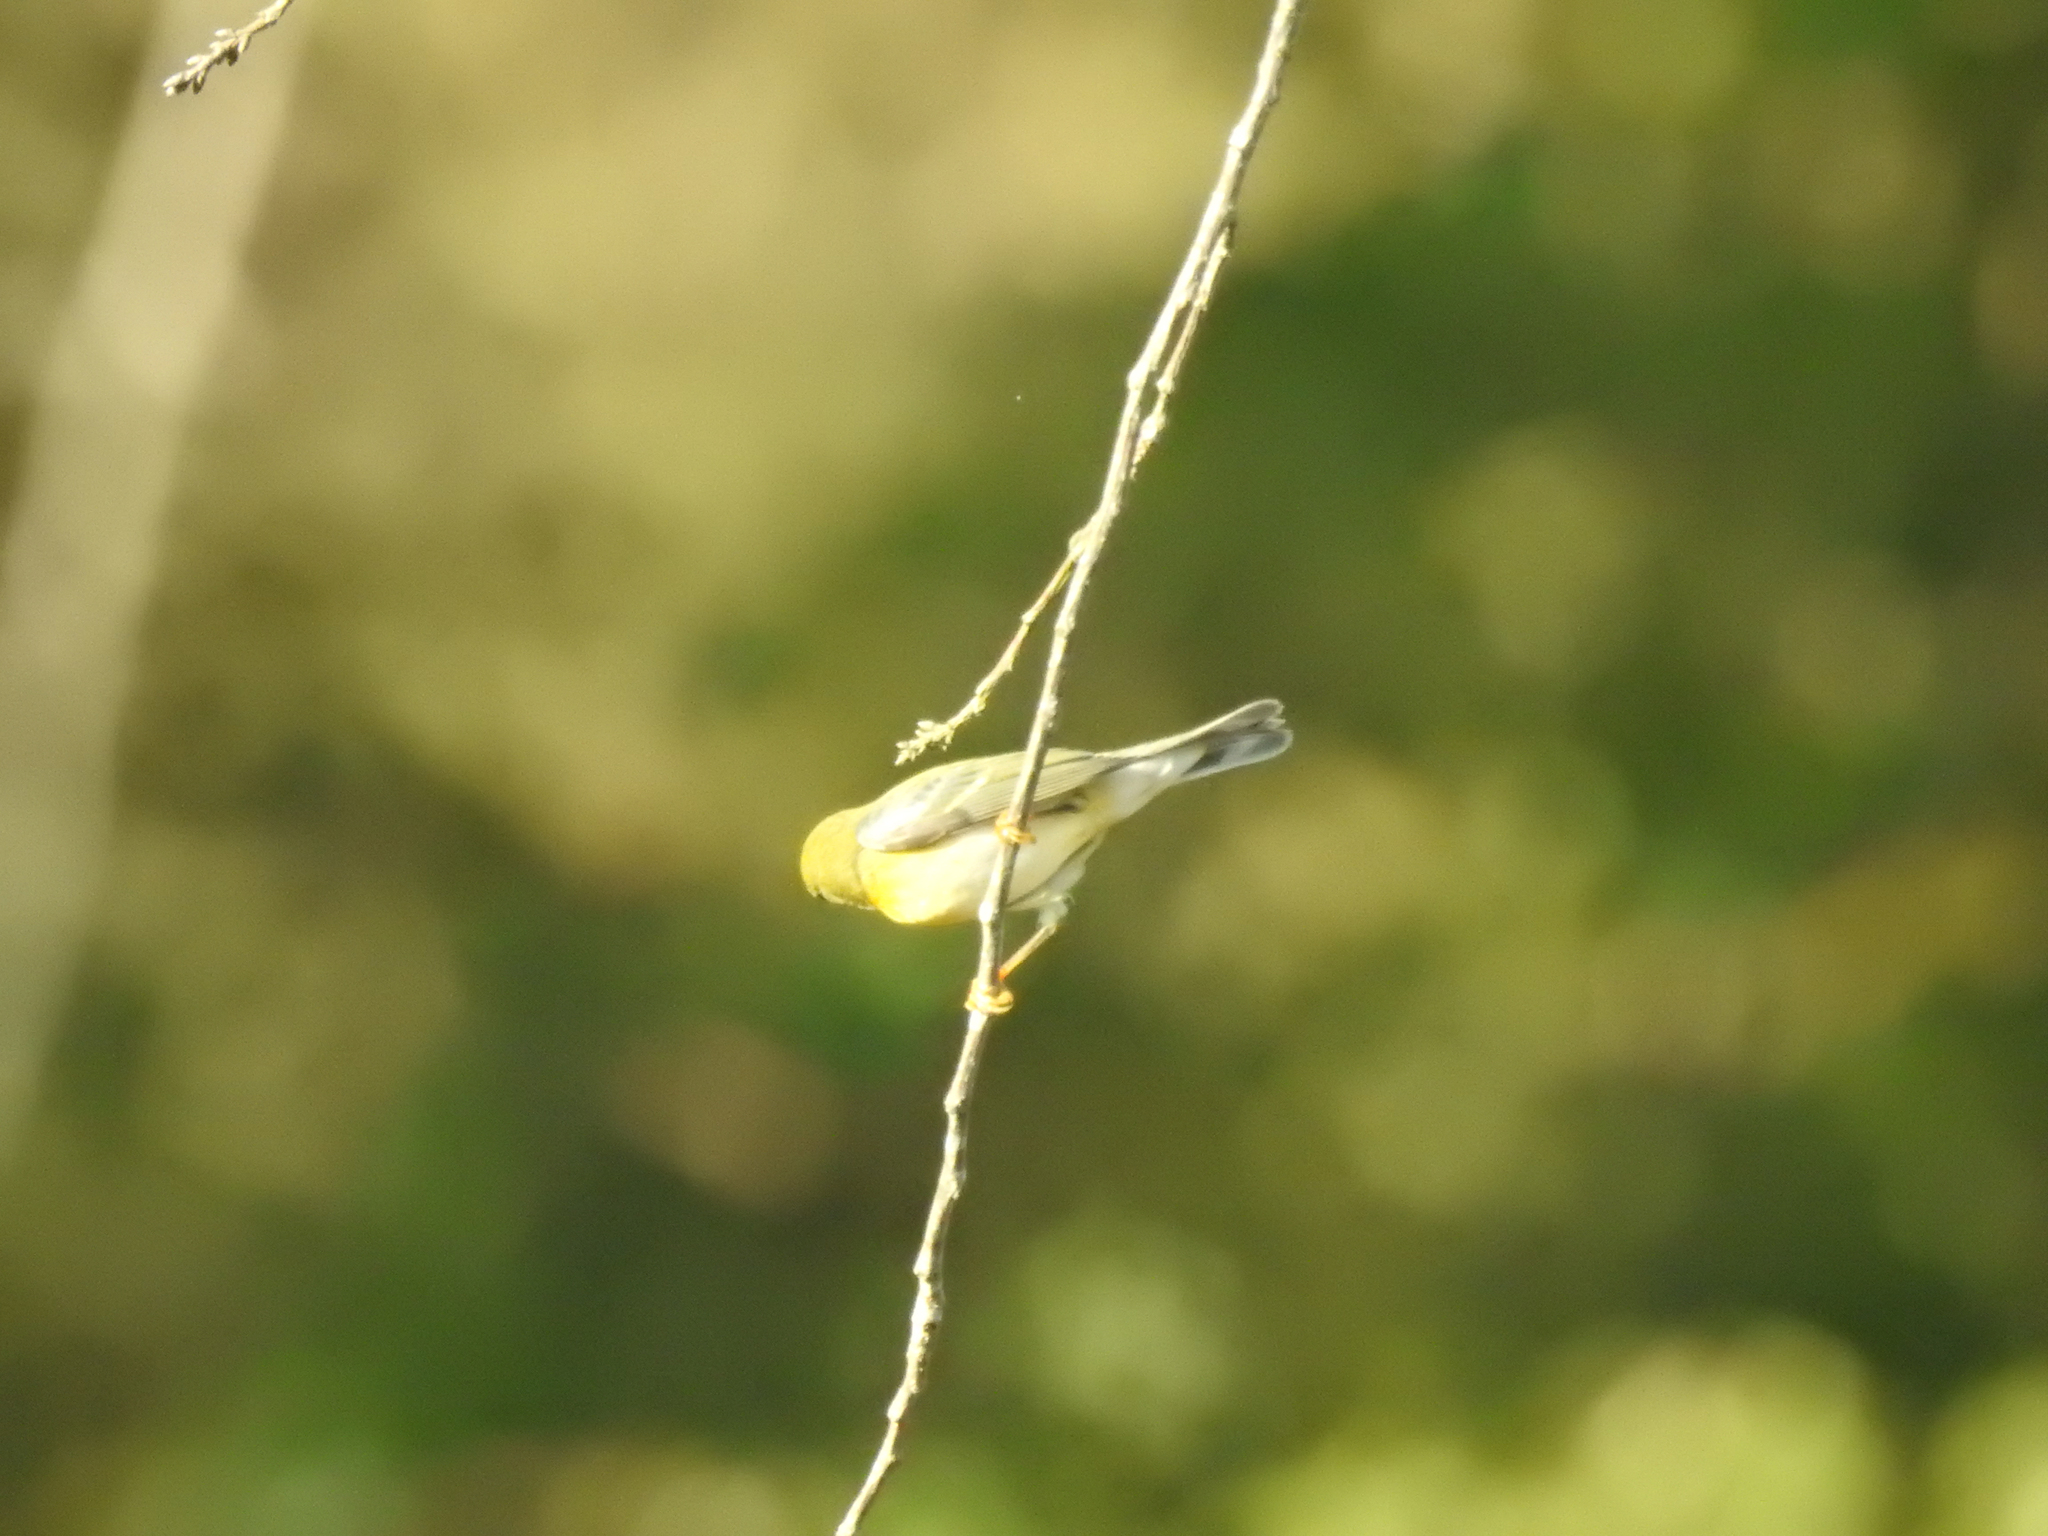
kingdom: Animalia
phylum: Chordata
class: Aves
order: Passeriformes
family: Parulidae
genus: Setophaga
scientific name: Setophaga striata
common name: Blackpoll warbler
